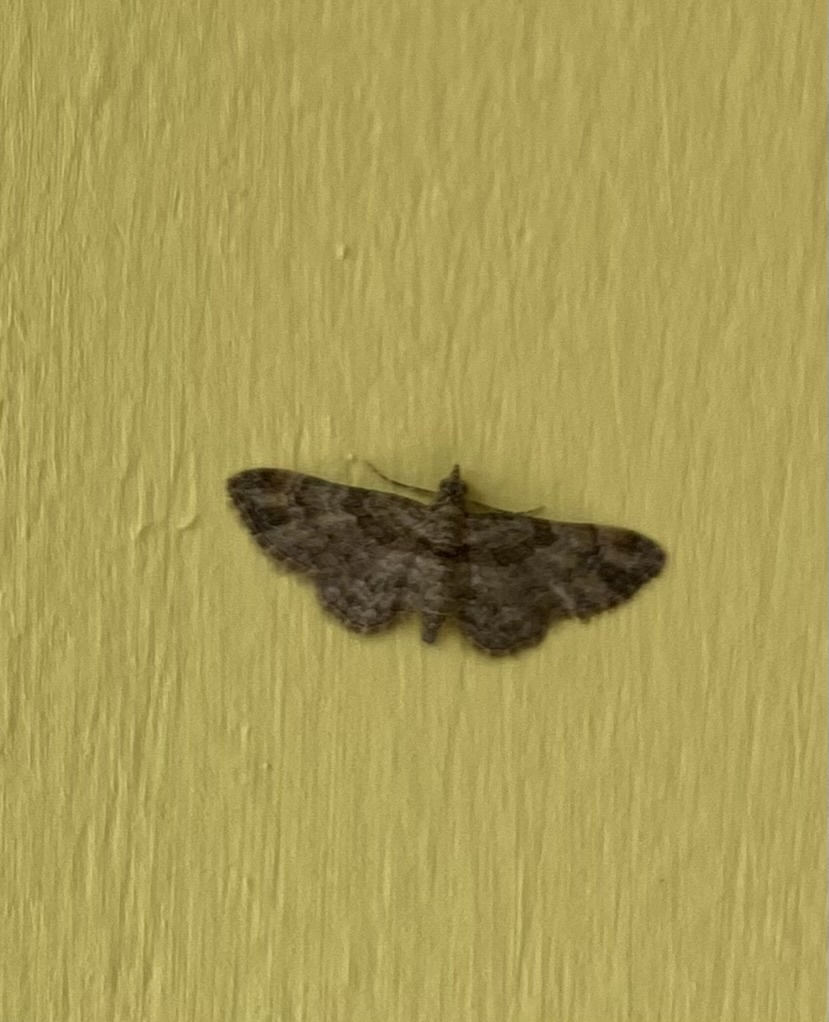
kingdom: Animalia
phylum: Arthropoda
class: Insecta
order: Lepidoptera
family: Geometridae
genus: Gymnoscelis
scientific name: Gymnoscelis rufifasciata
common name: Double-striped pug
